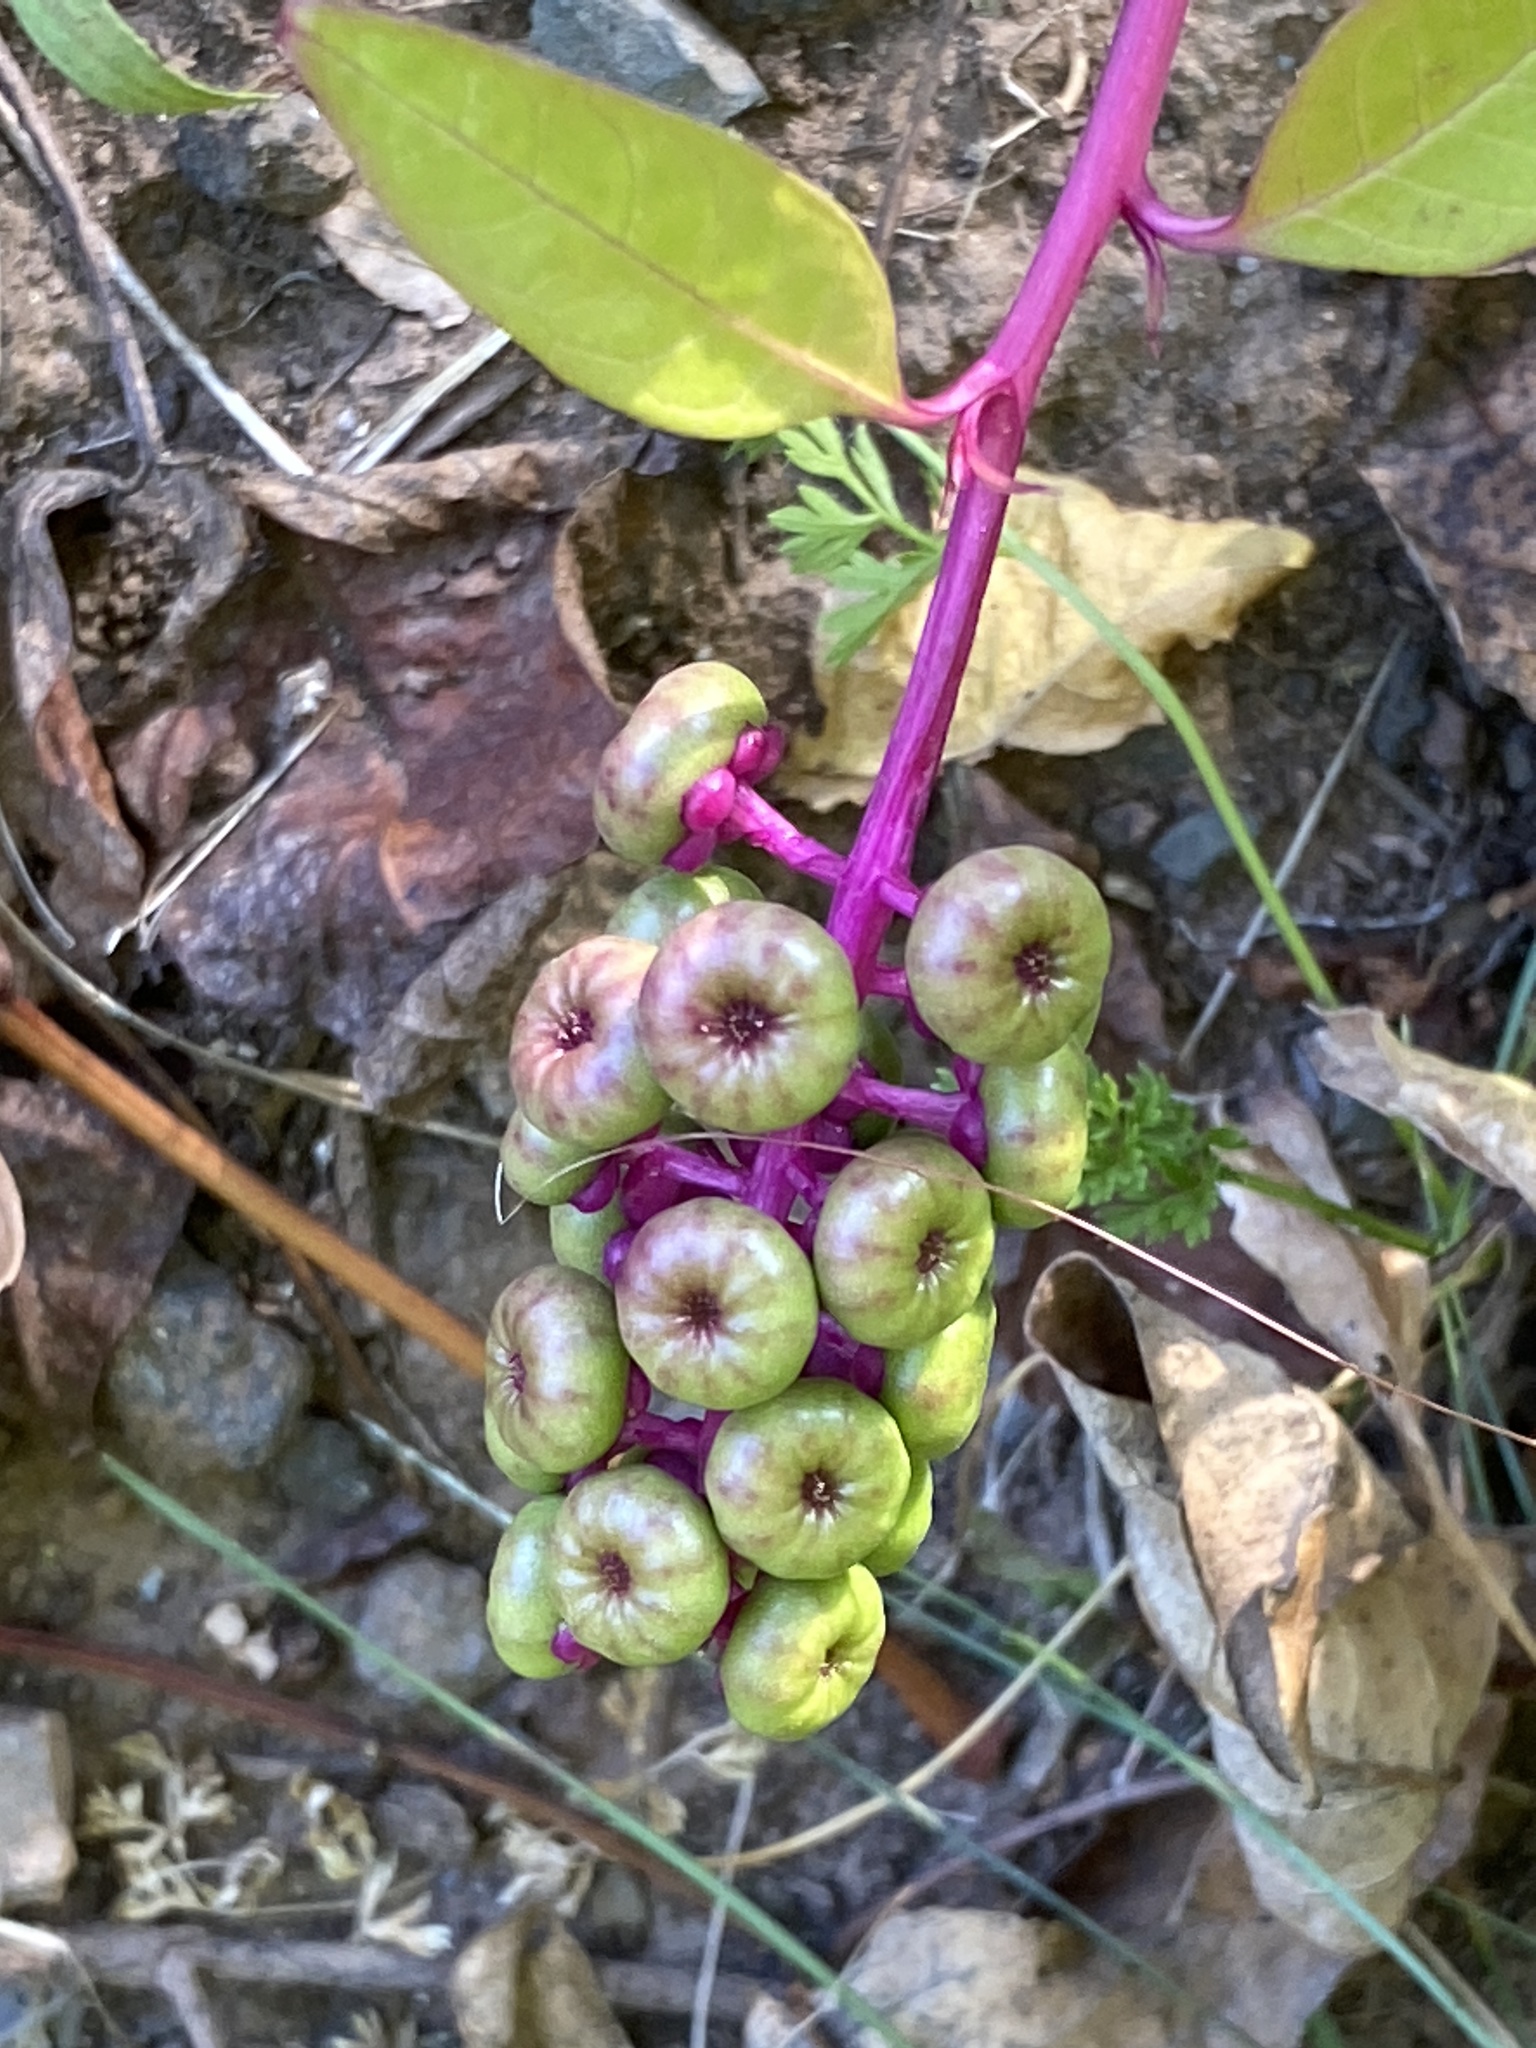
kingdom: Plantae
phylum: Tracheophyta
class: Magnoliopsida
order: Caryophyllales
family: Phytolaccaceae
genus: Phytolacca
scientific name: Phytolacca americana
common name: American pokeweed
